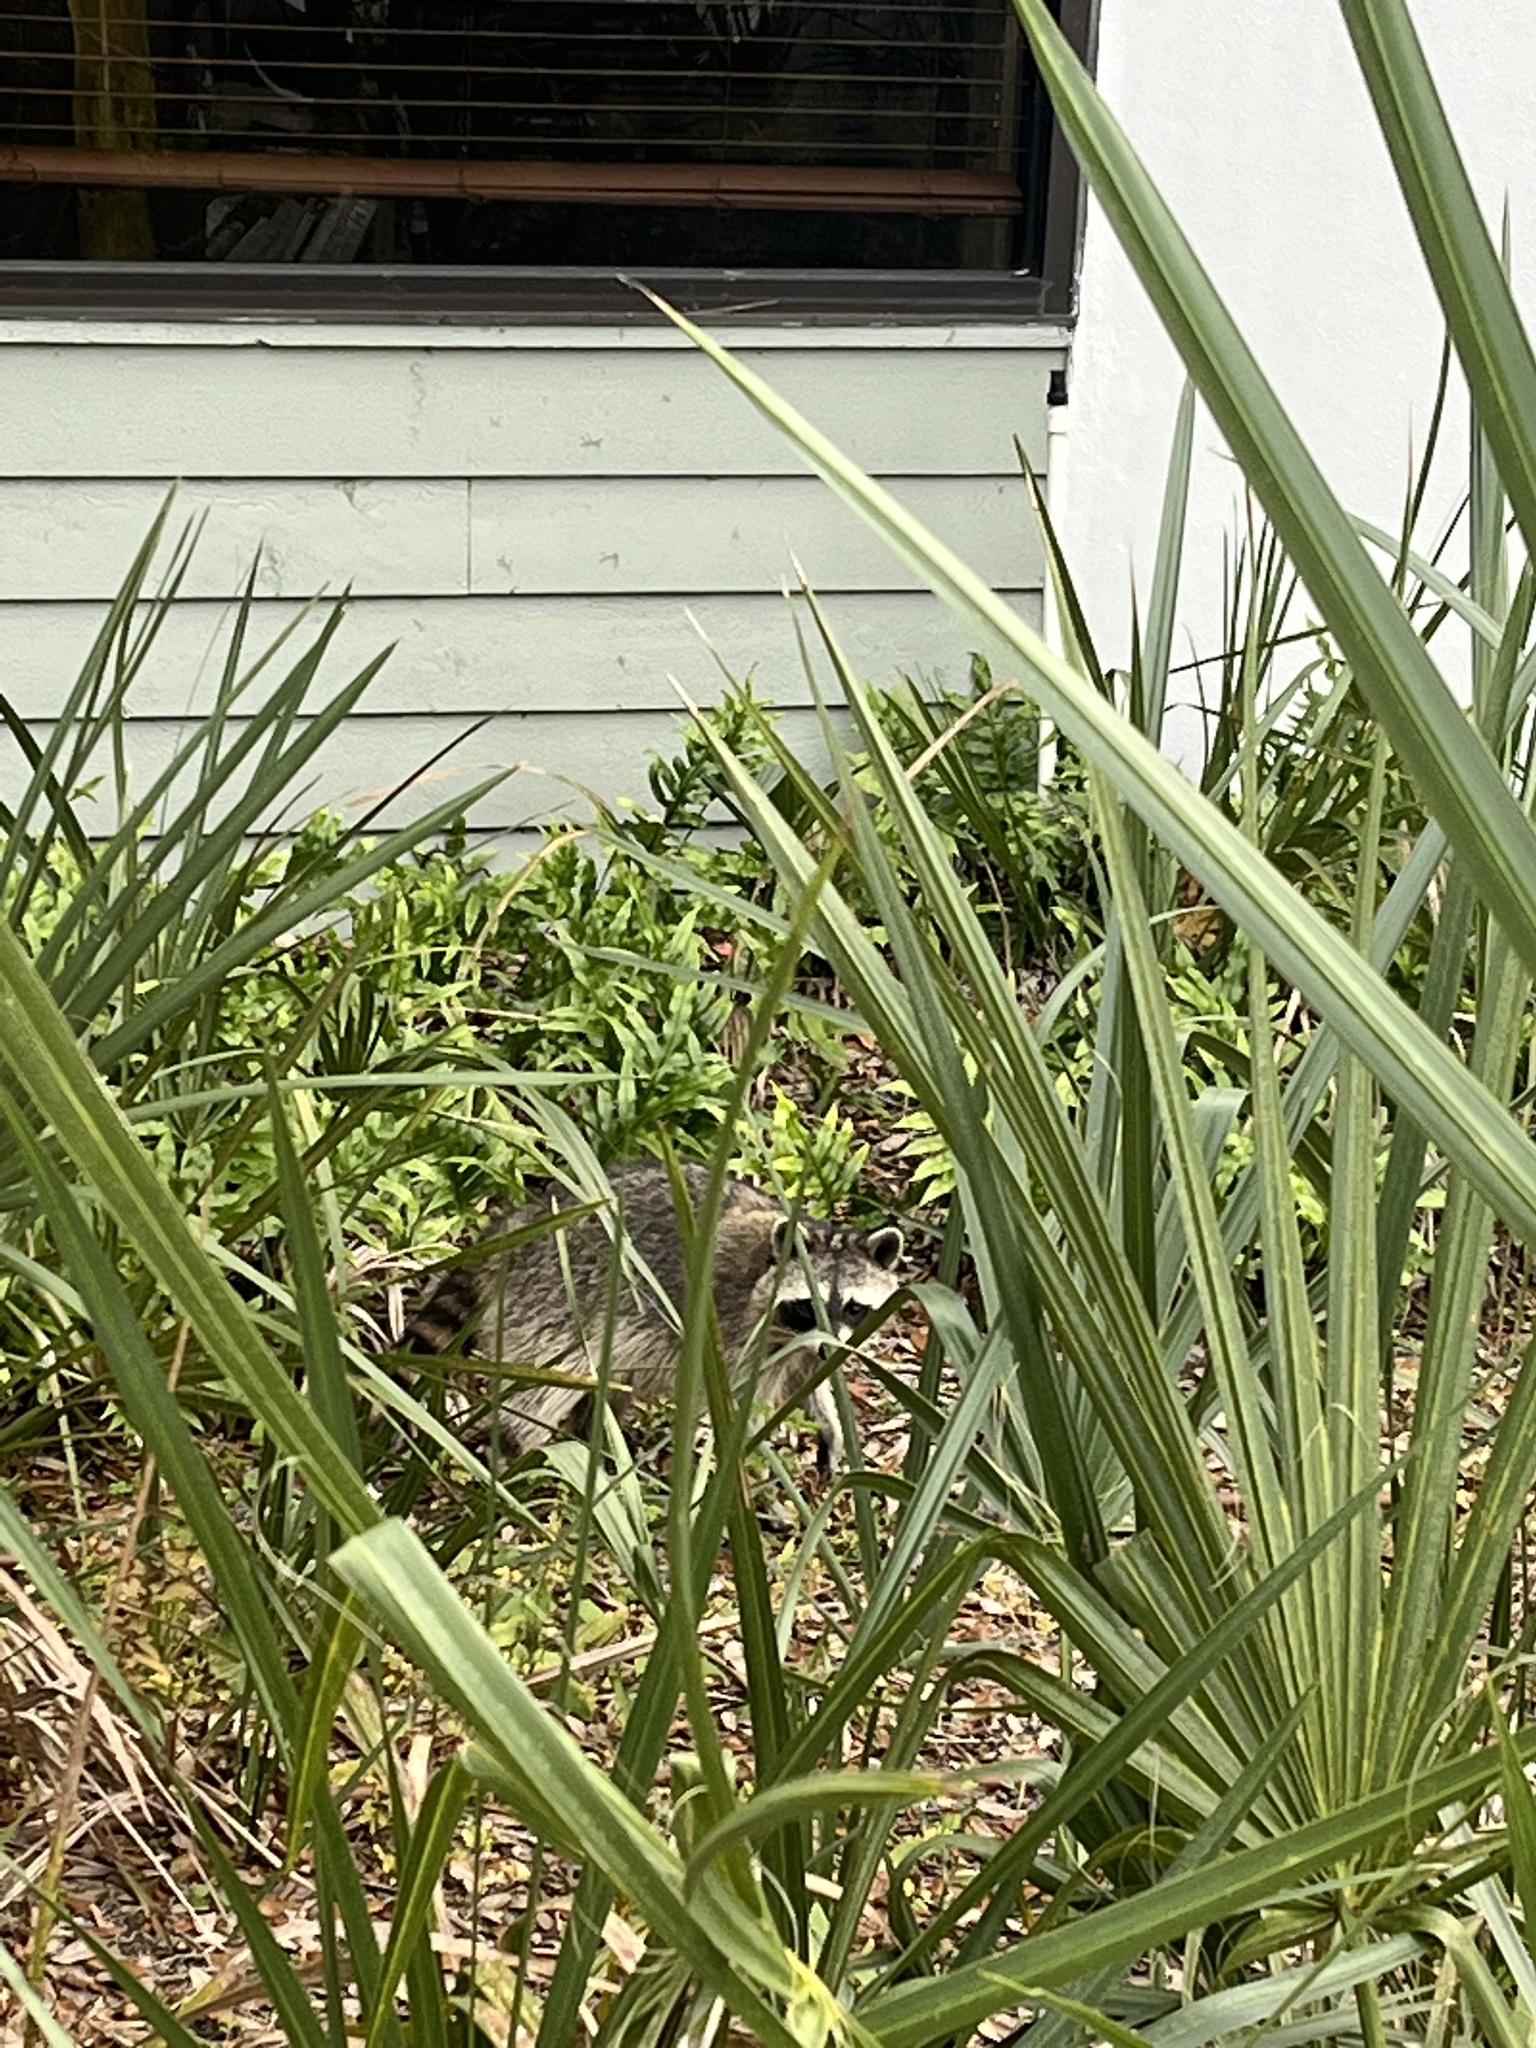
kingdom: Animalia
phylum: Chordata
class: Mammalia
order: Carnivora
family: Procyonidae
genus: Procyon
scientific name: Procyon lotor
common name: Raccoon
